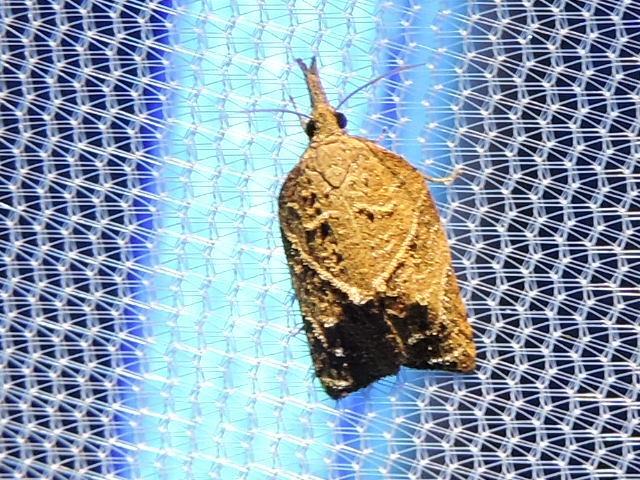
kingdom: Animalia
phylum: Arthropoda
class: Insecta
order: Lepidoptera
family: Tortricidae
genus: Platynota
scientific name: Platynota rostrana
